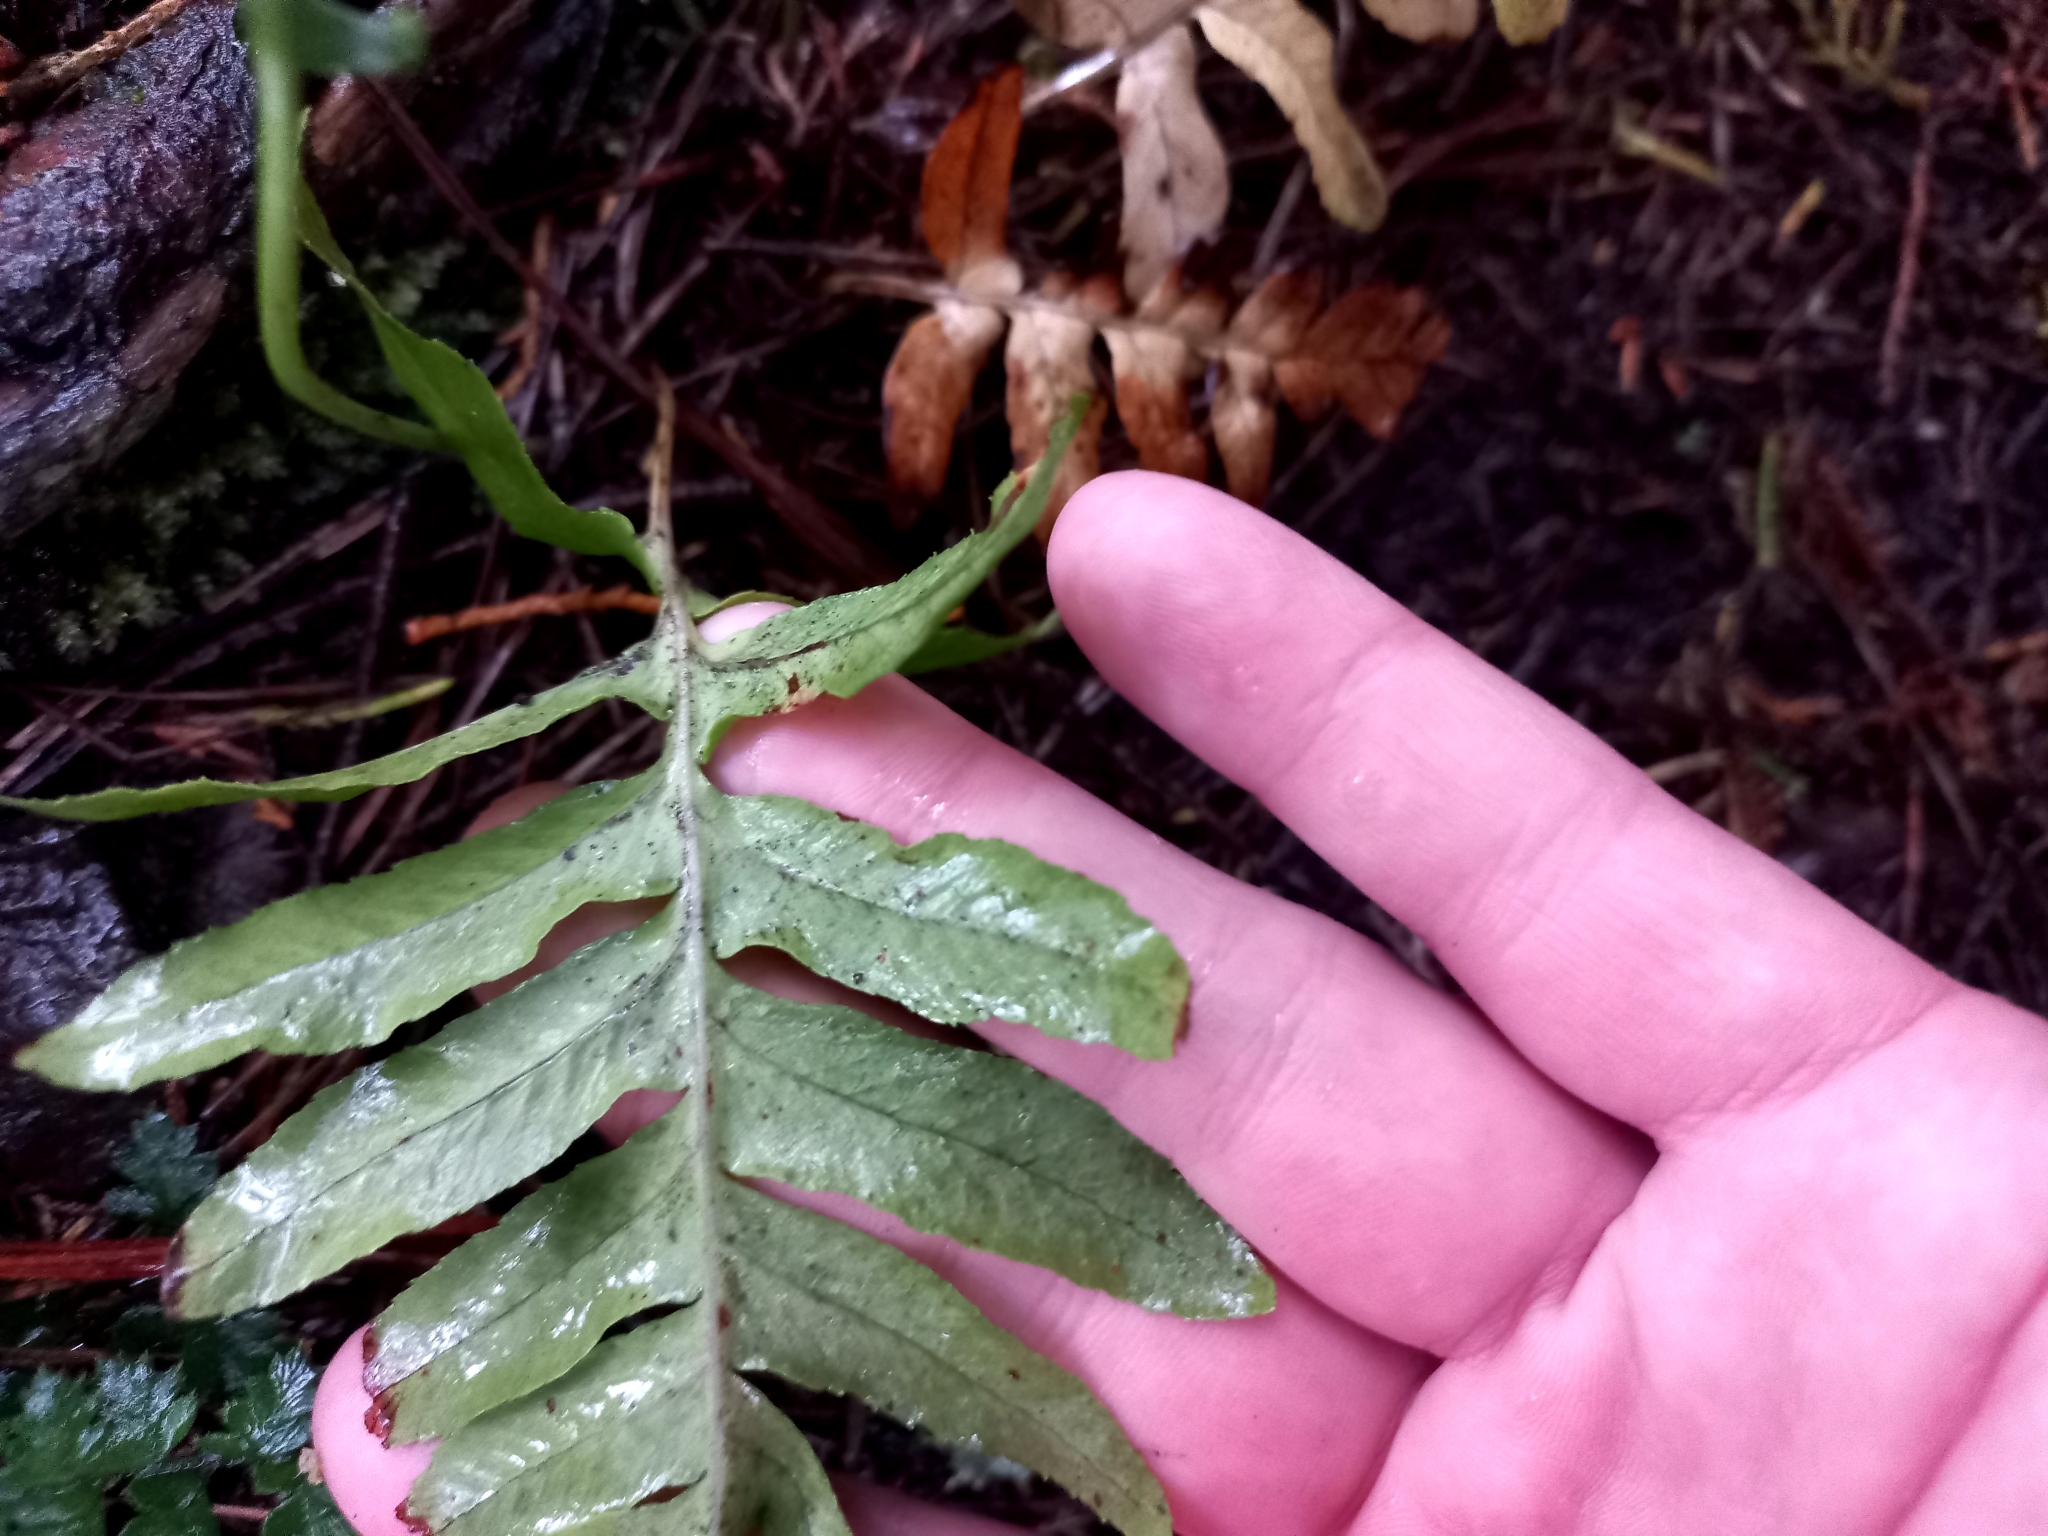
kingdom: Plantae
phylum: Tracheophyta
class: Polypodiopsida
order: Polypodiales
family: Polypodiaceae
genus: Polypodium
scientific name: Polypodium vulgare
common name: Common polypody
